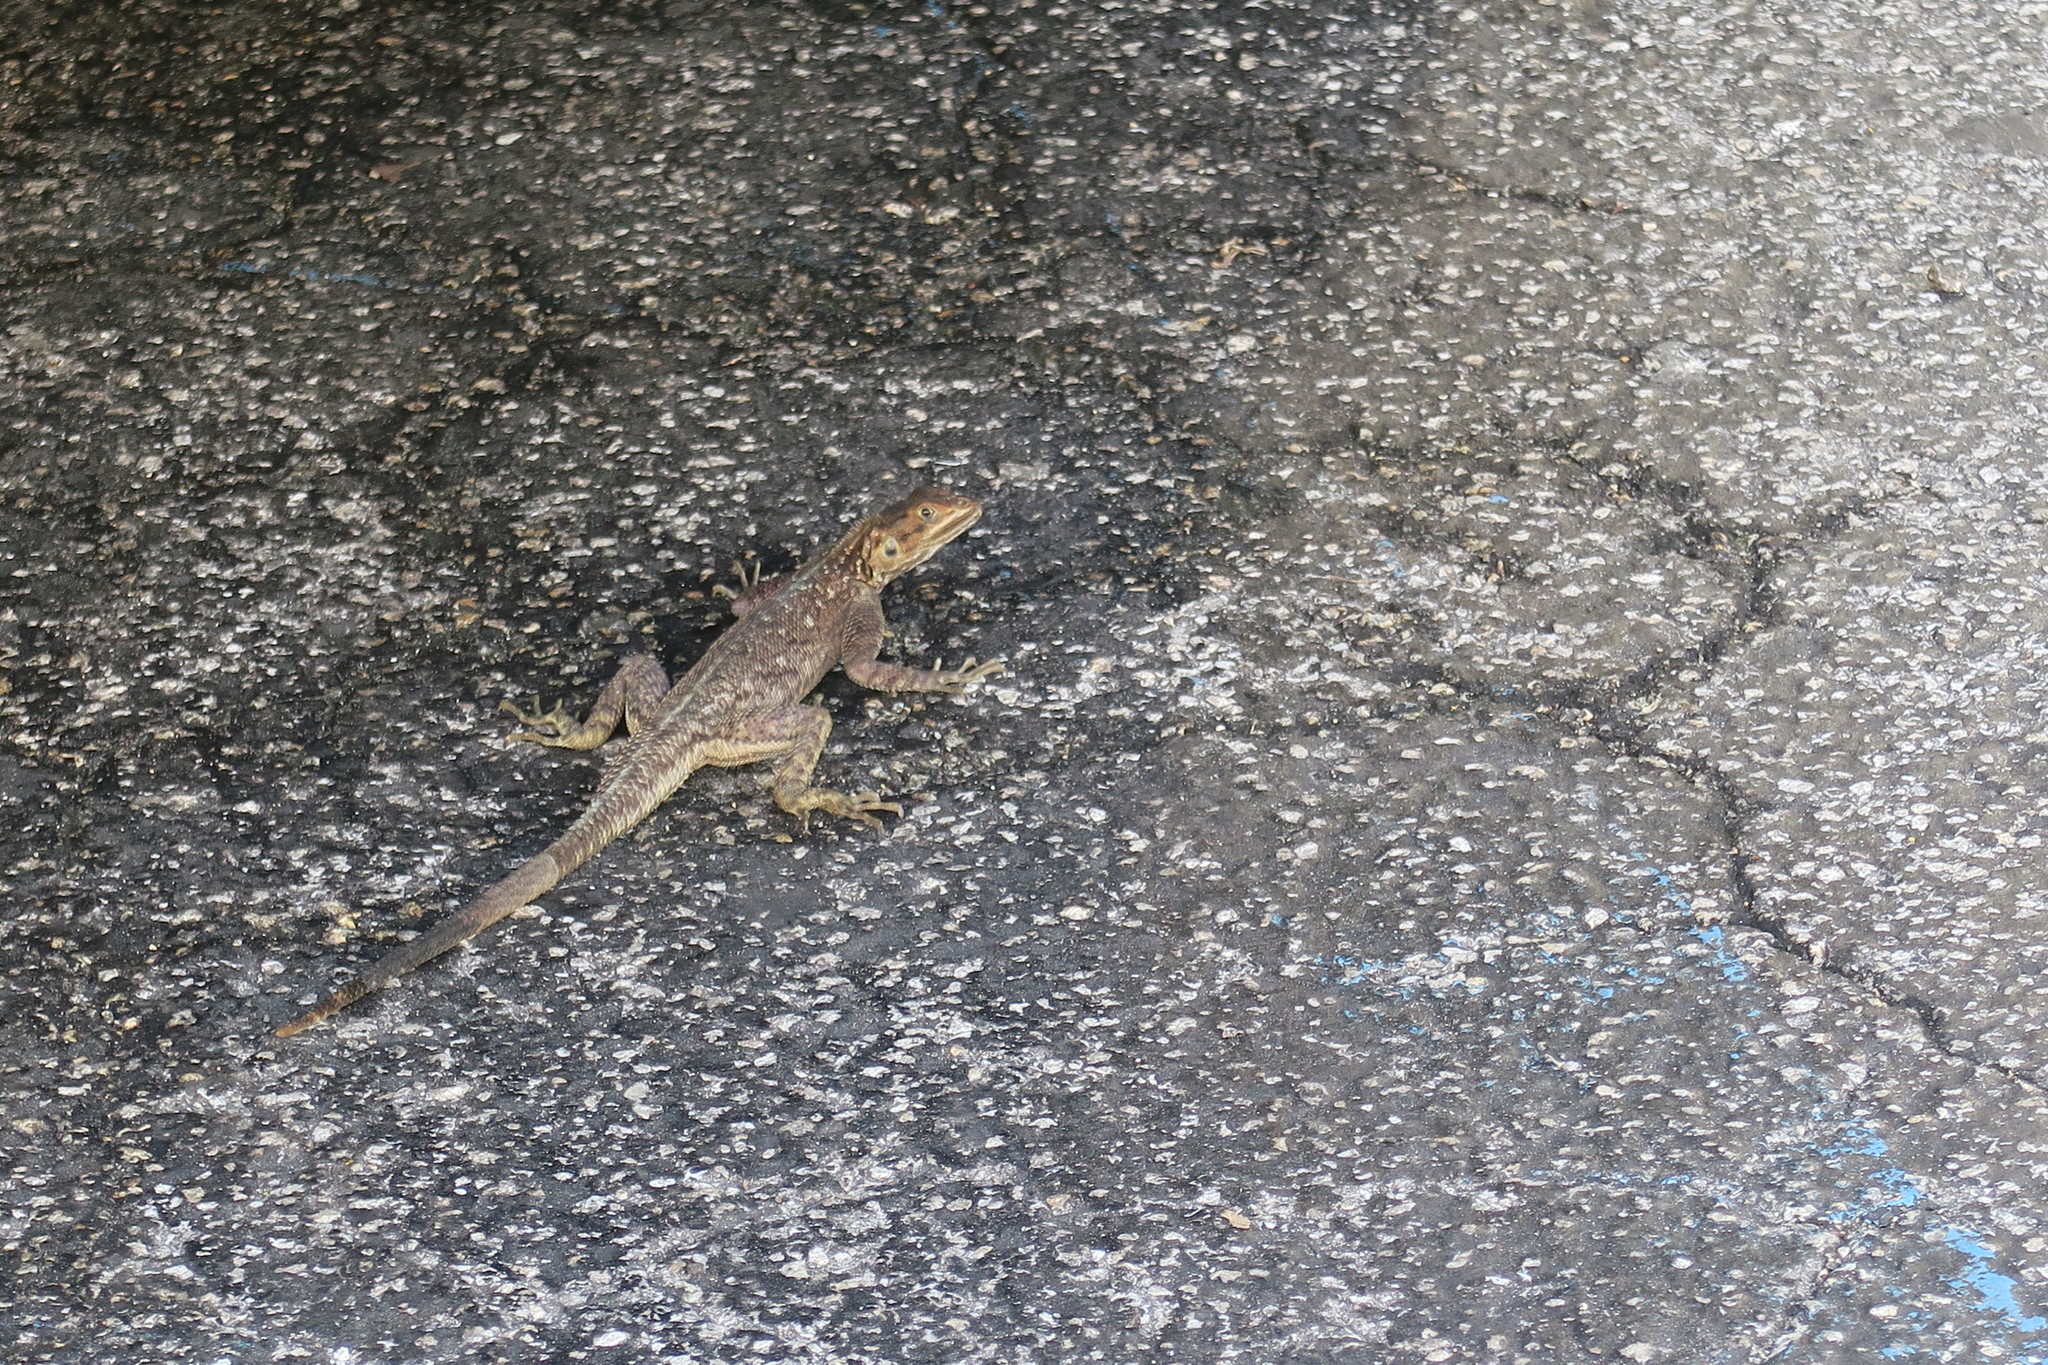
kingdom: Animalia
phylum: Chordata
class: Squamata
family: Agamidae
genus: Agama
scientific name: Agama picticauda
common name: Red-headed agama
